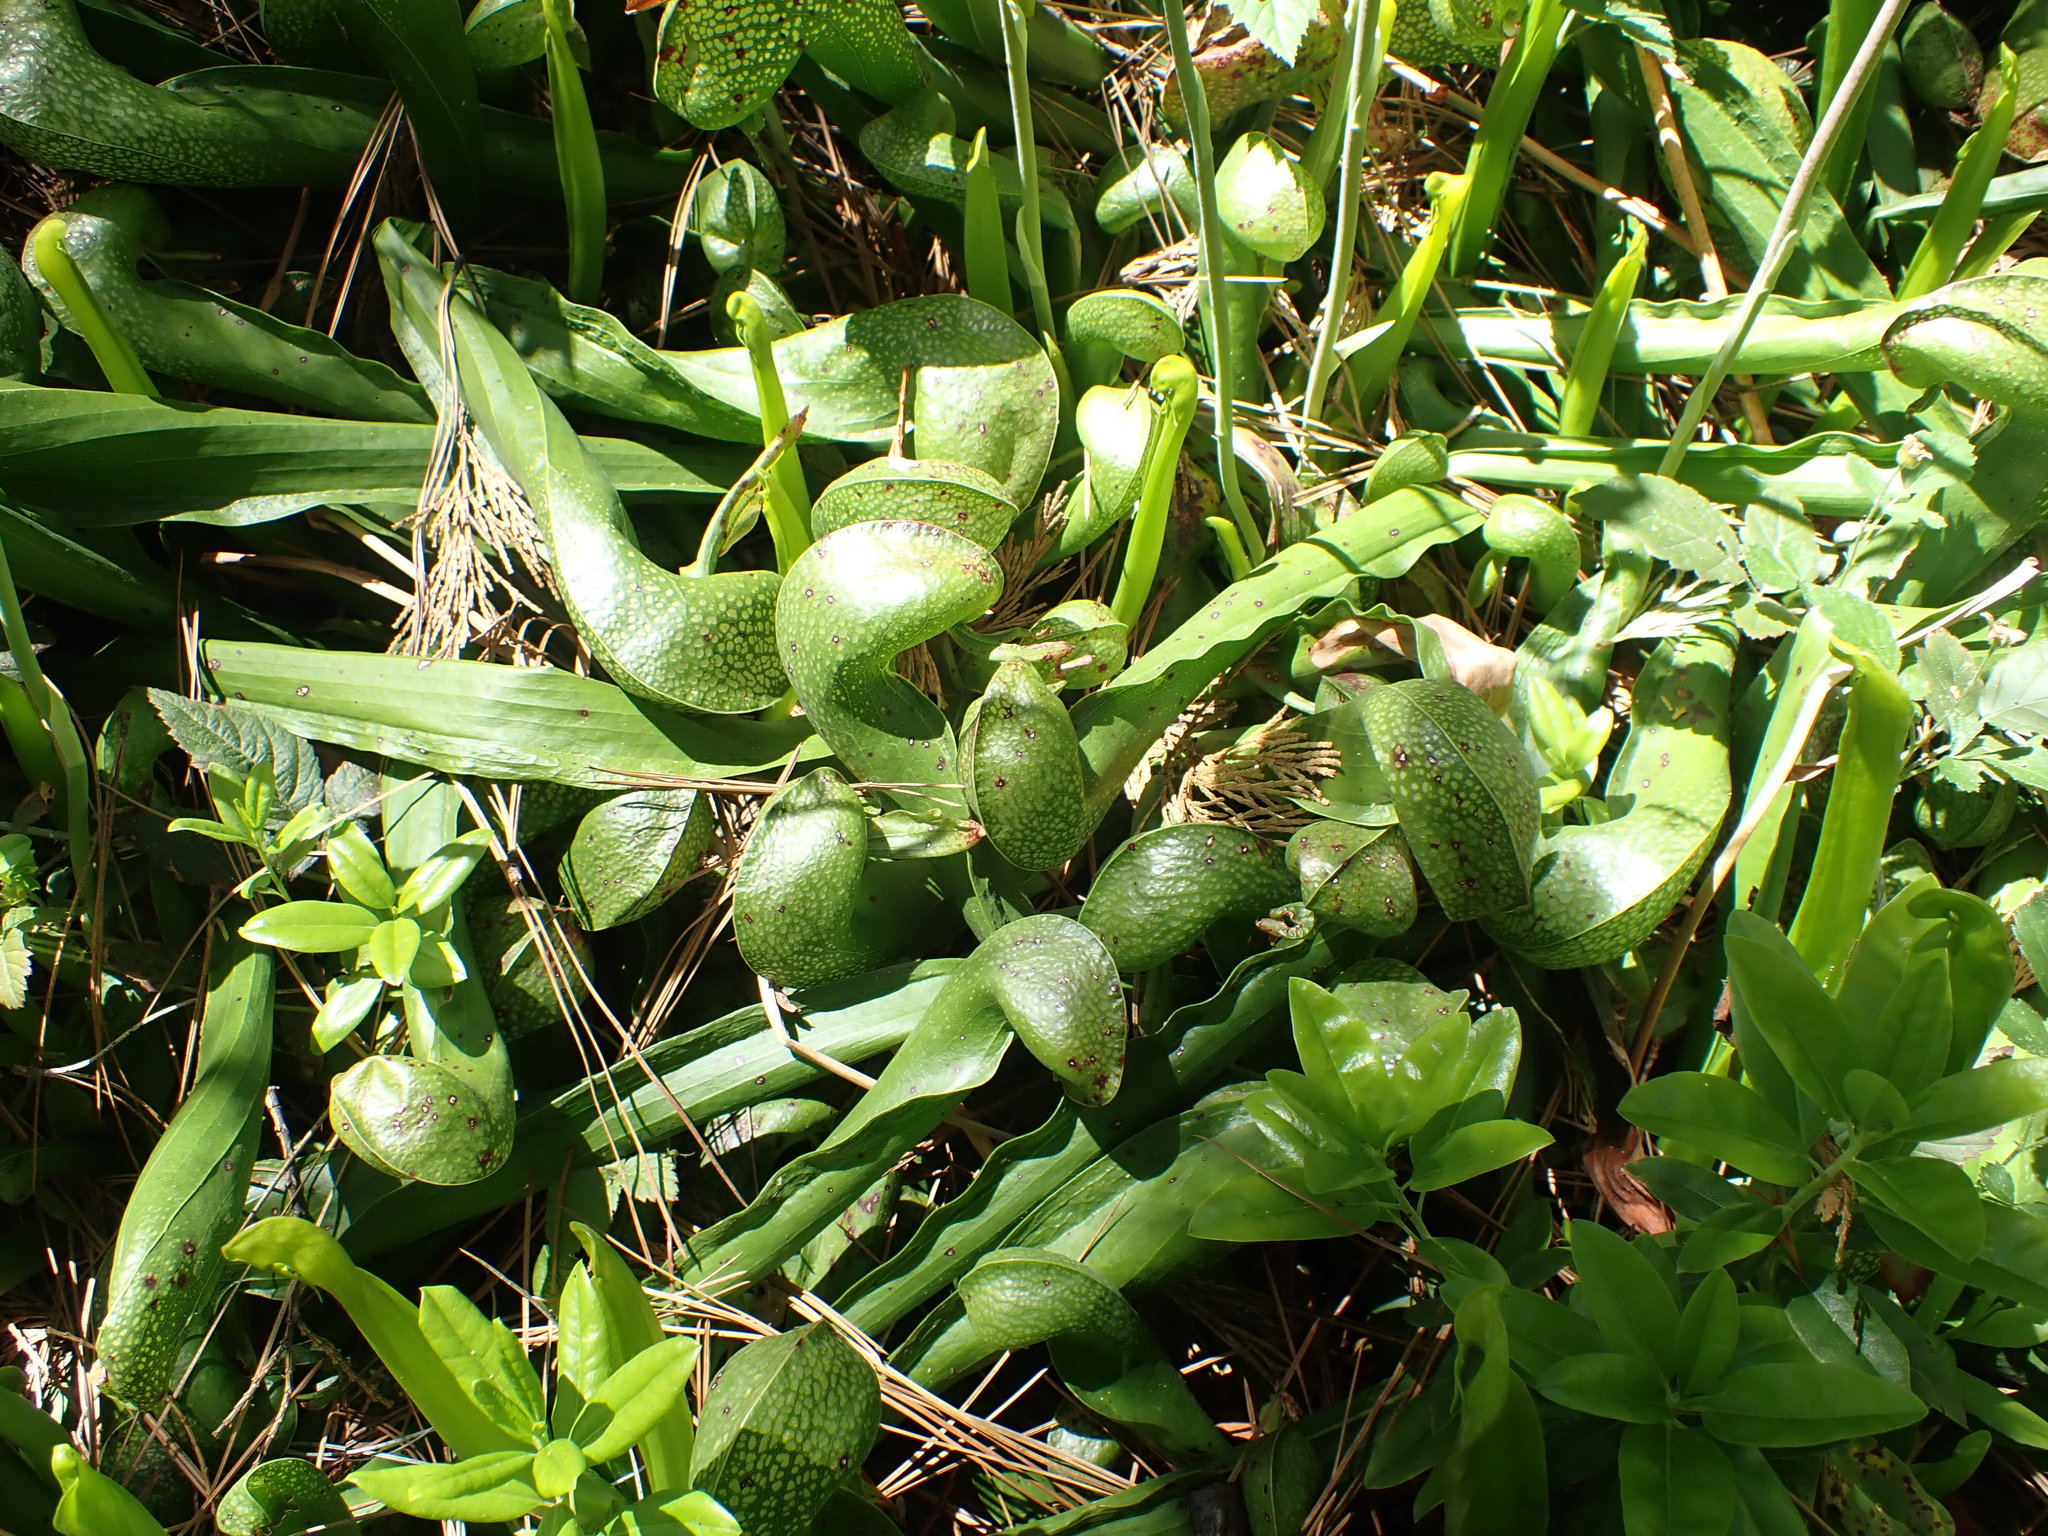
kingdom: Plantae
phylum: Tracheophyta
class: Magnoliopsida
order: Ericales
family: Sarraceniaceae
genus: Darlingtonia
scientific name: Darlingtonia californica
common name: California pitcher plant
